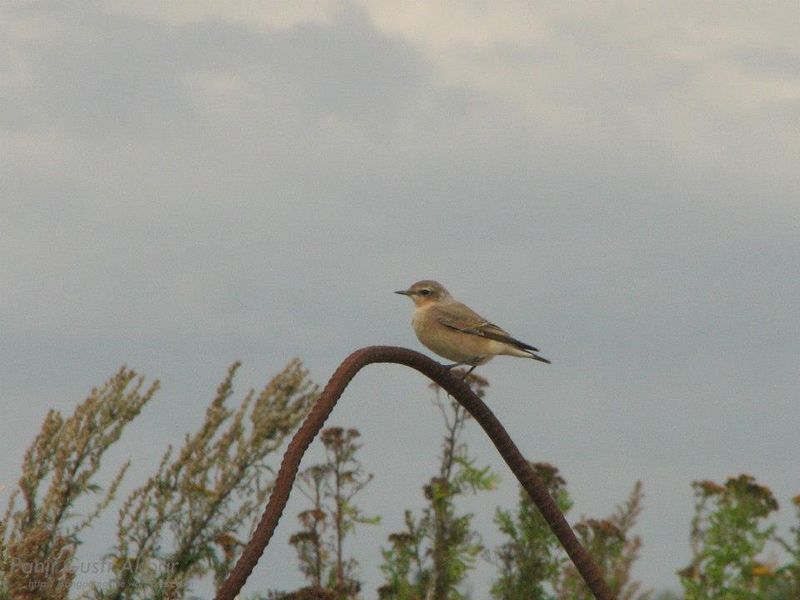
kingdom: Animalia
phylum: Chordata
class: Aves
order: Passeriformes
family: Muscicapidae
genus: Oenanthe
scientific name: Oenanthe oenanthe
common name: Northern wheatear
